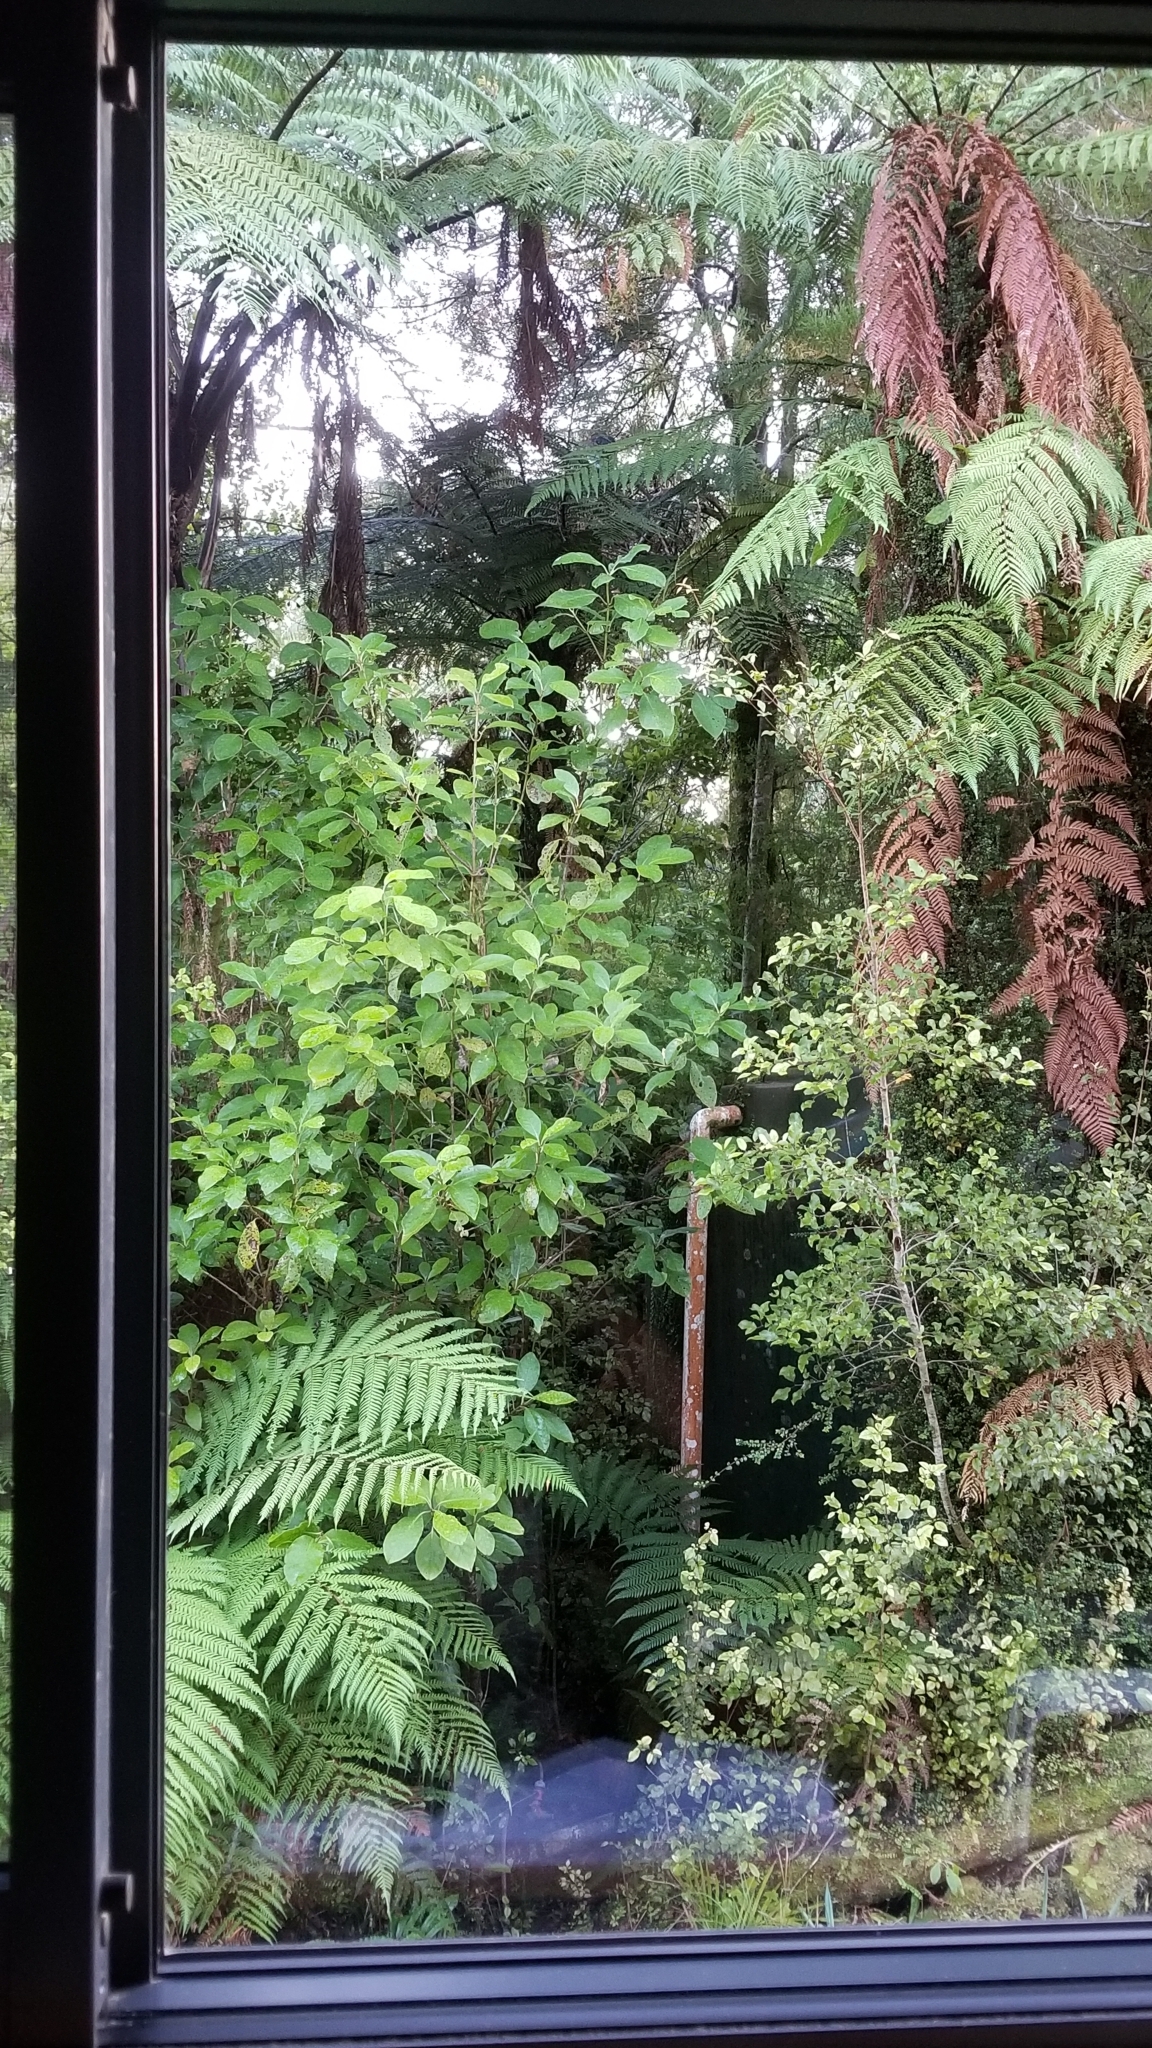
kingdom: Animalia
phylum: Chordata
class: Aves
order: Columbiformes
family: Columbidae
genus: Hemiphaga
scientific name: Hemiphaga novaeseelandiae
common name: New zealand pigeon
